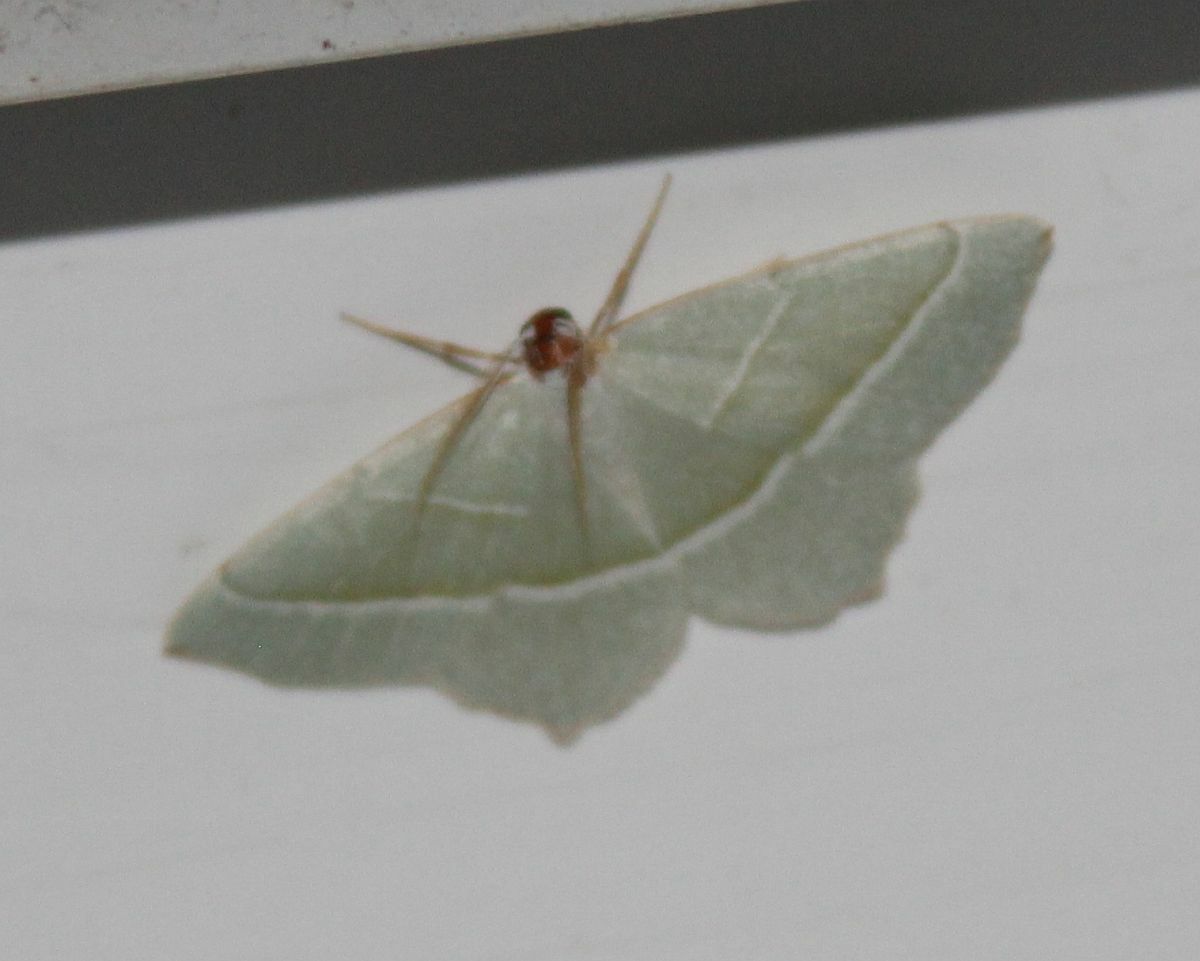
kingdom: Animalia
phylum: Arthropoda
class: Insecta
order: Lepidoptera
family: Geometridae
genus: Campaea
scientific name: Campaea margaritaria
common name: Light emerald
